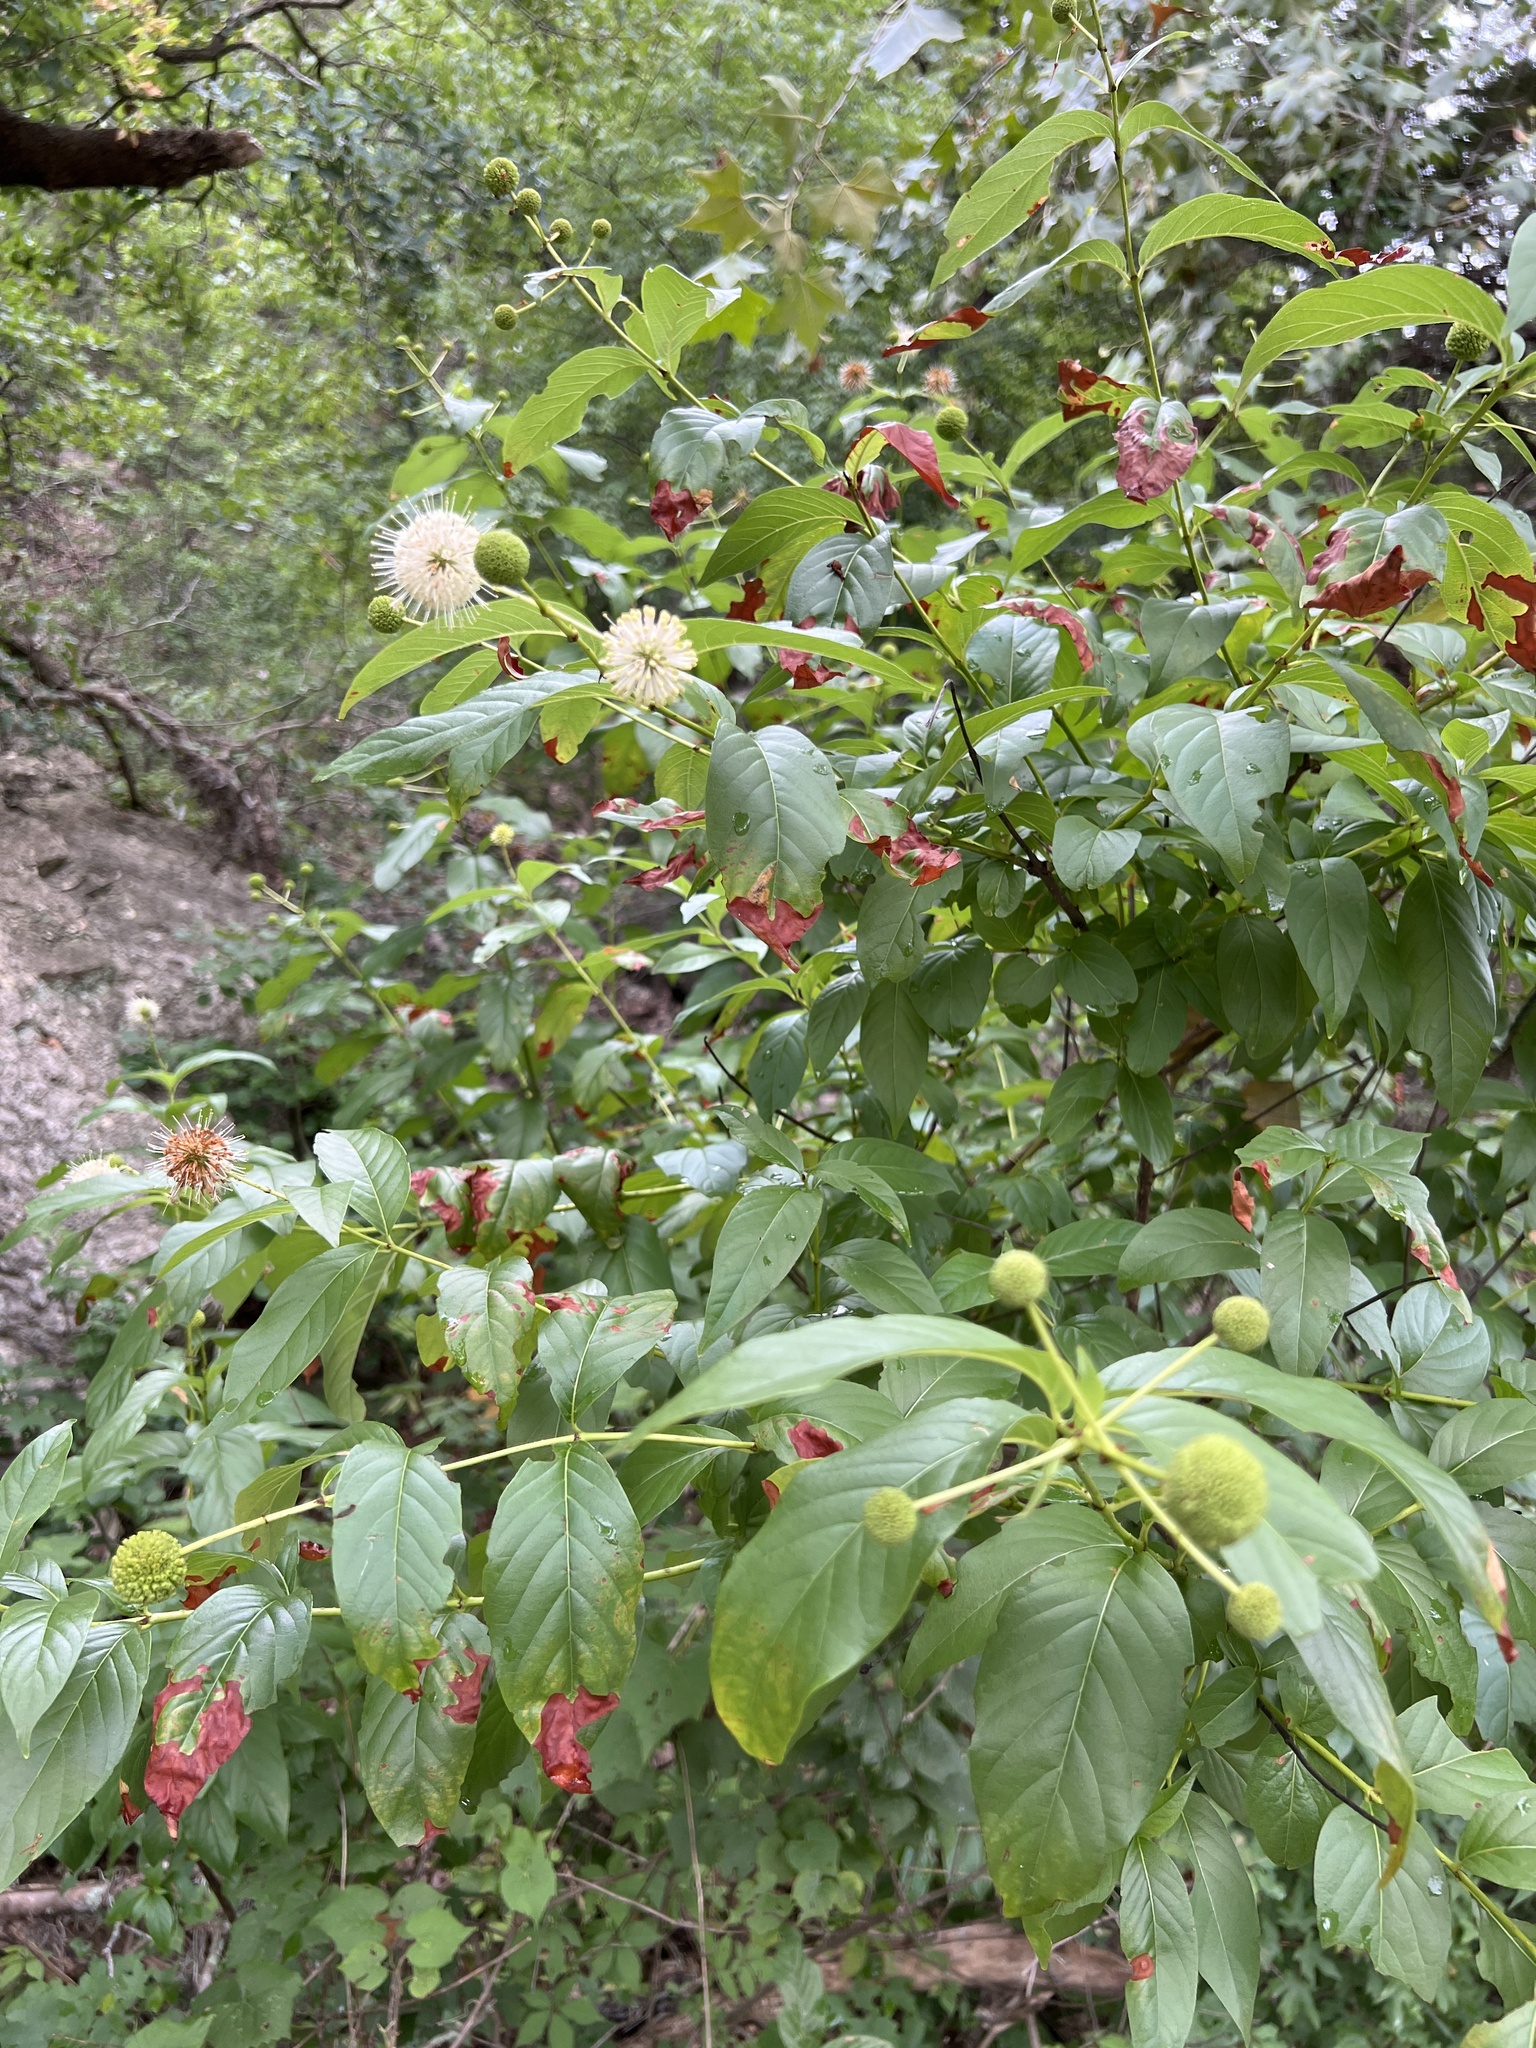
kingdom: Plantae
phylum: Tracheophyta
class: Magnoliopsida
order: Gentianales
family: Rubiaceae
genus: Cephalanthus
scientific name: Cephalanthus occidentalis
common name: Button-willow
